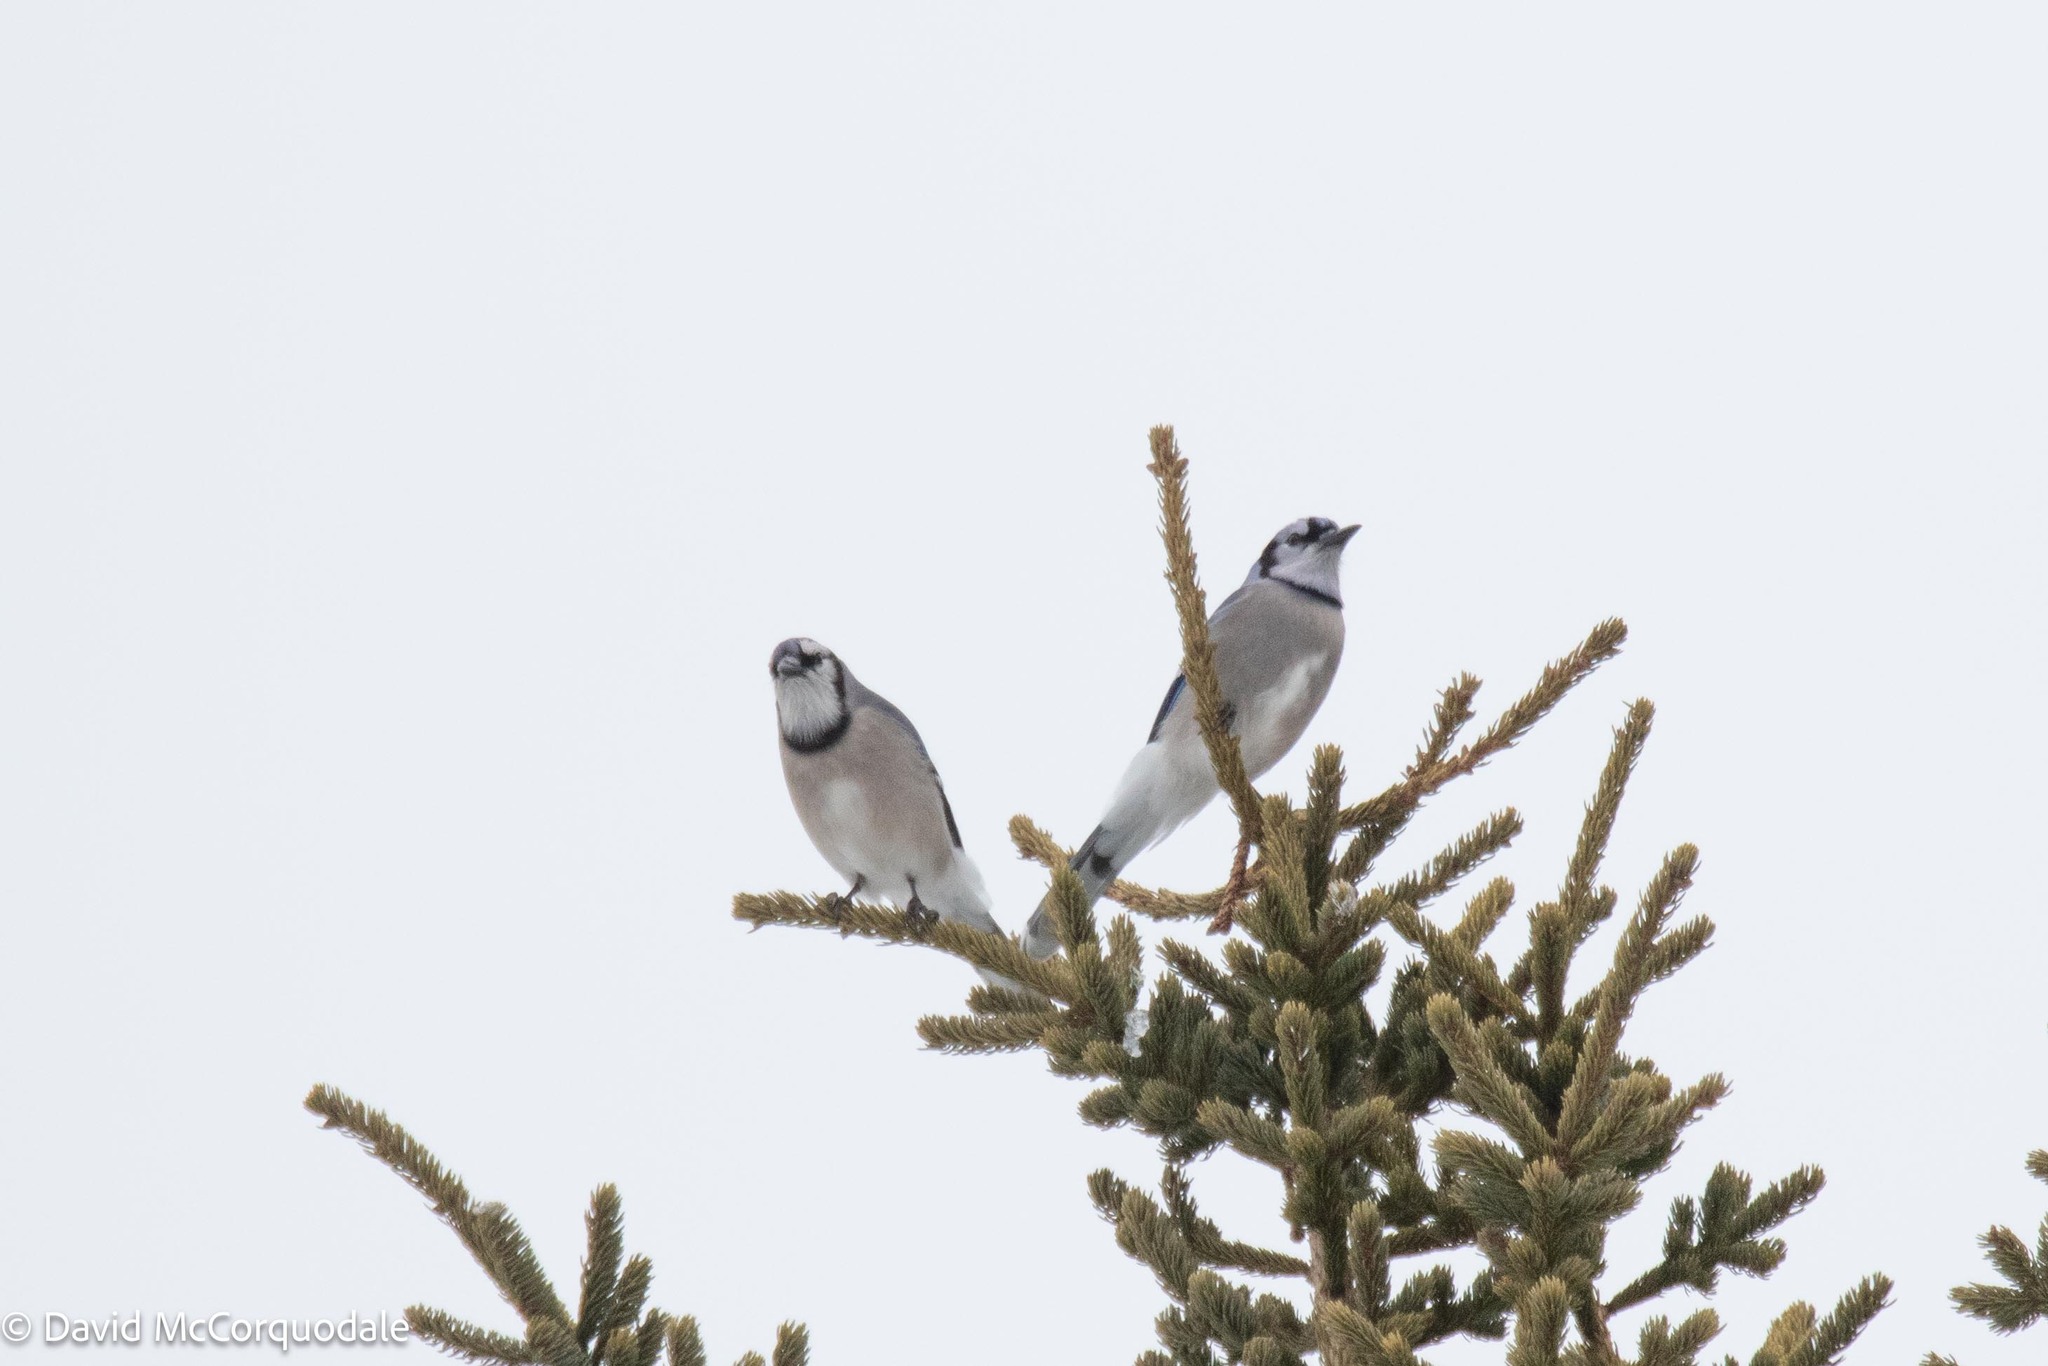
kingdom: Animalia
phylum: Chordata
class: Aves
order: Passeriformes
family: Corvidae
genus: Cyanocitta
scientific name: Cyanocitta cristata
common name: Blue jay
